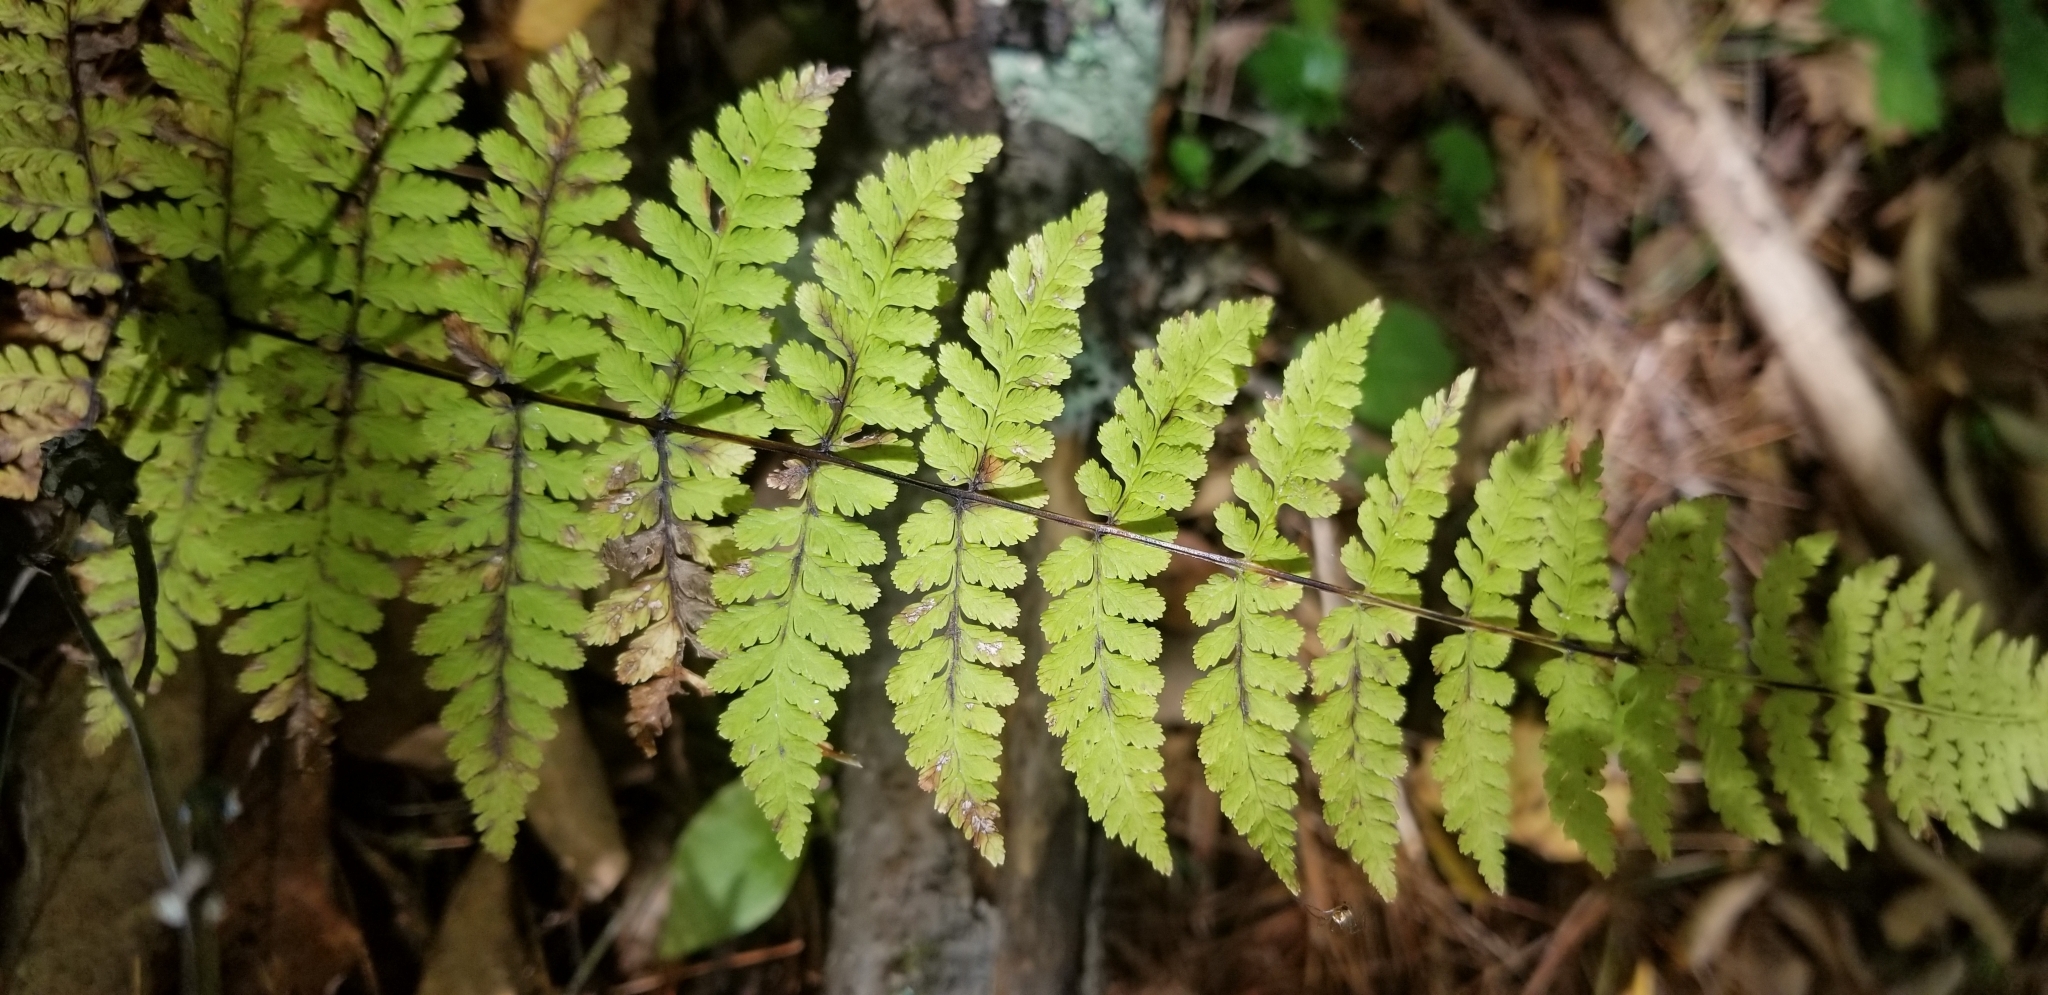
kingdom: Plantae
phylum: Tracheophyta
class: Polypodiopsida
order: Polypodiales
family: Cystopteridaceae
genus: Cystopteris
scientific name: Cystopteris bulbifera
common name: Bulblet bladder fern
